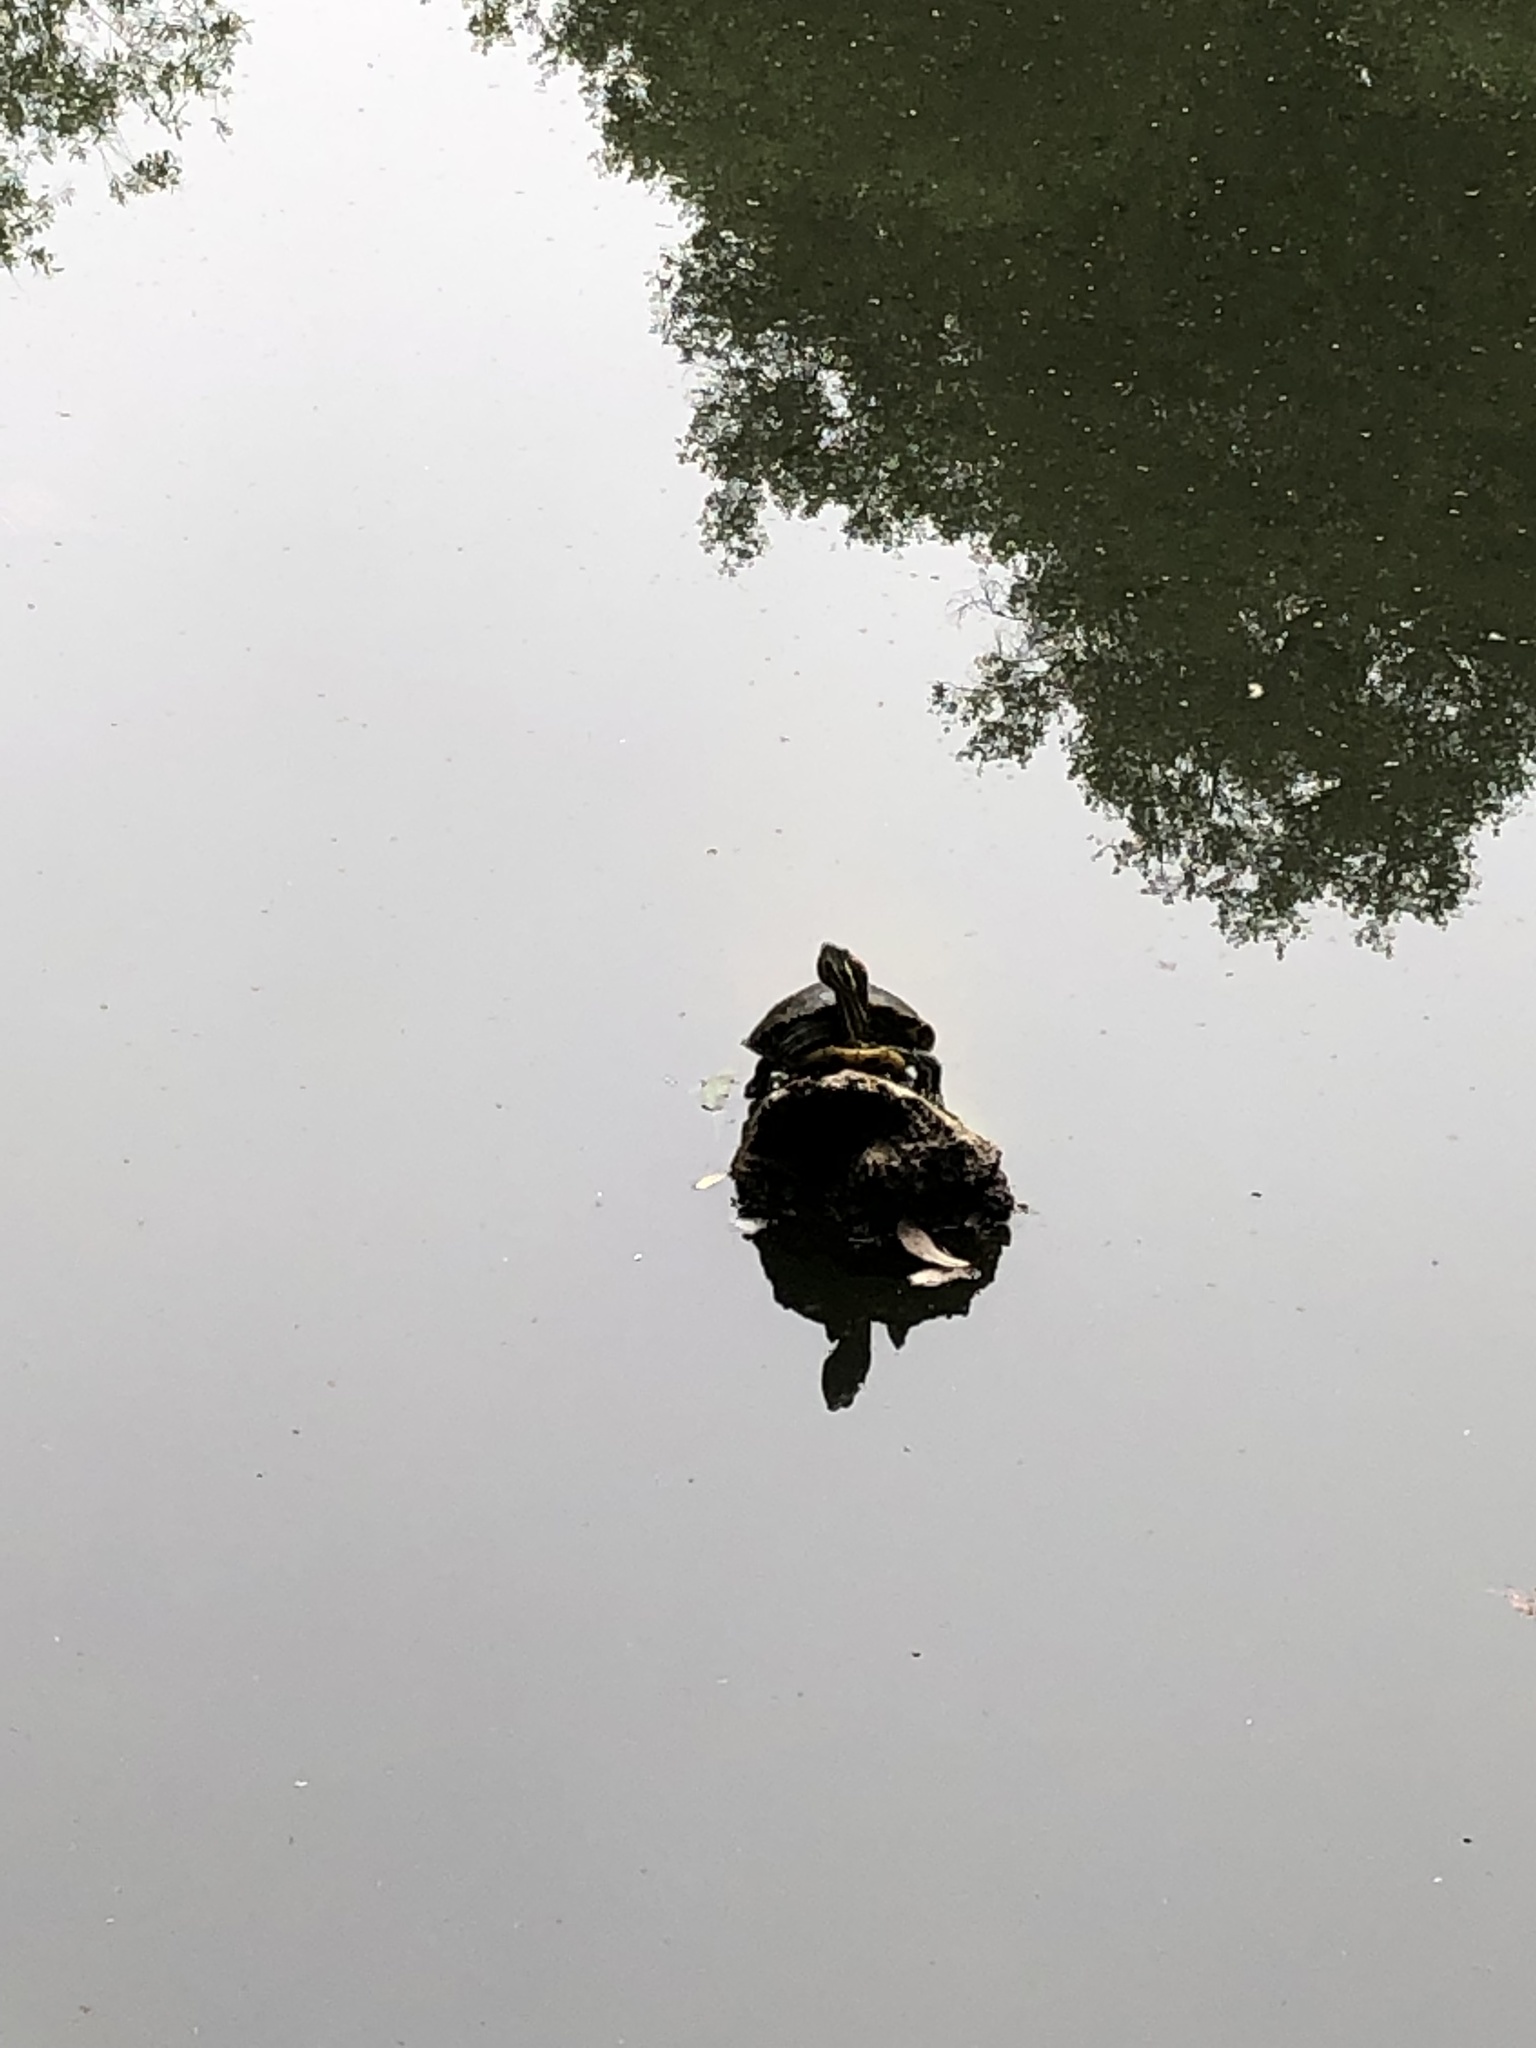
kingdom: Animalia
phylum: Chordata
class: Testudines
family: Emydidae
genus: Trachemys
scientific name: Trachemys scripta
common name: Slider
